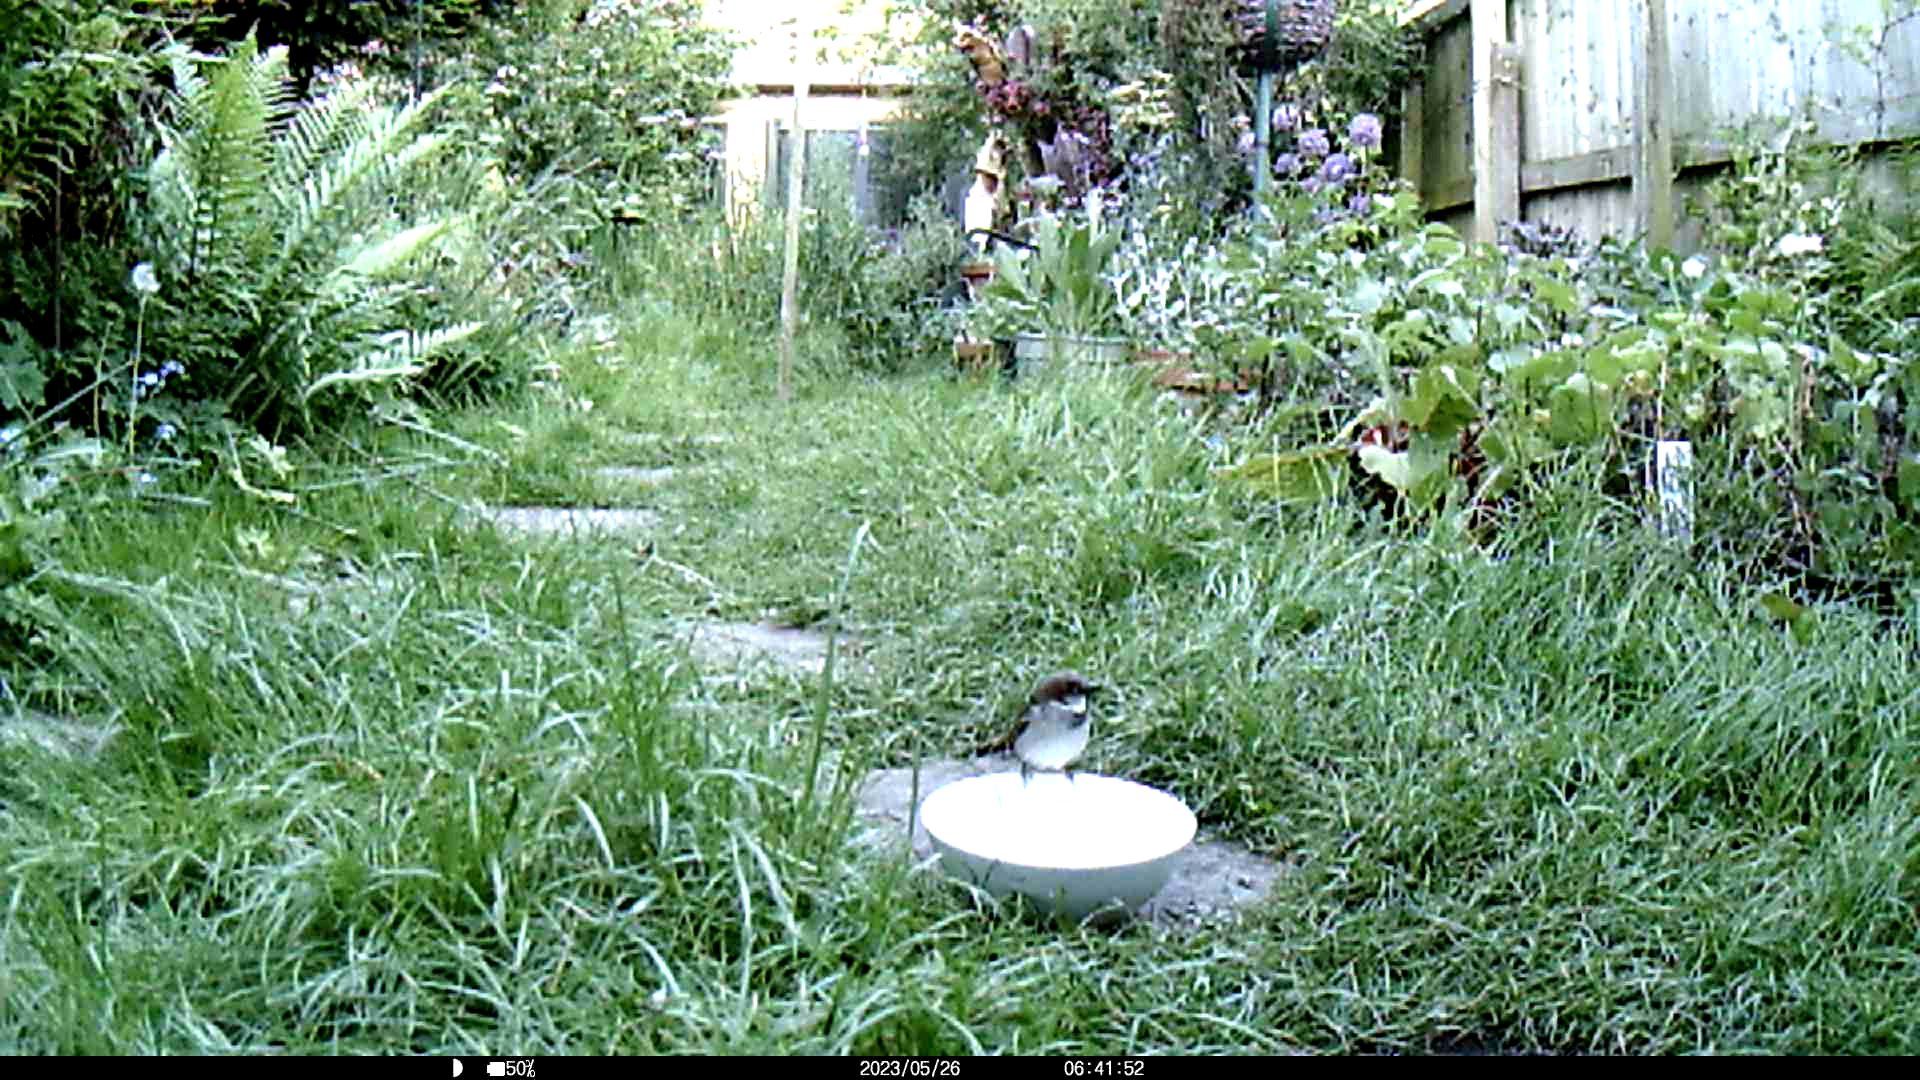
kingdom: Animalia
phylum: Chordata
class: Aves
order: Passeriformes
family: Passeridae
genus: Passer
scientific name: Passer domesticus
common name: House sparrow
